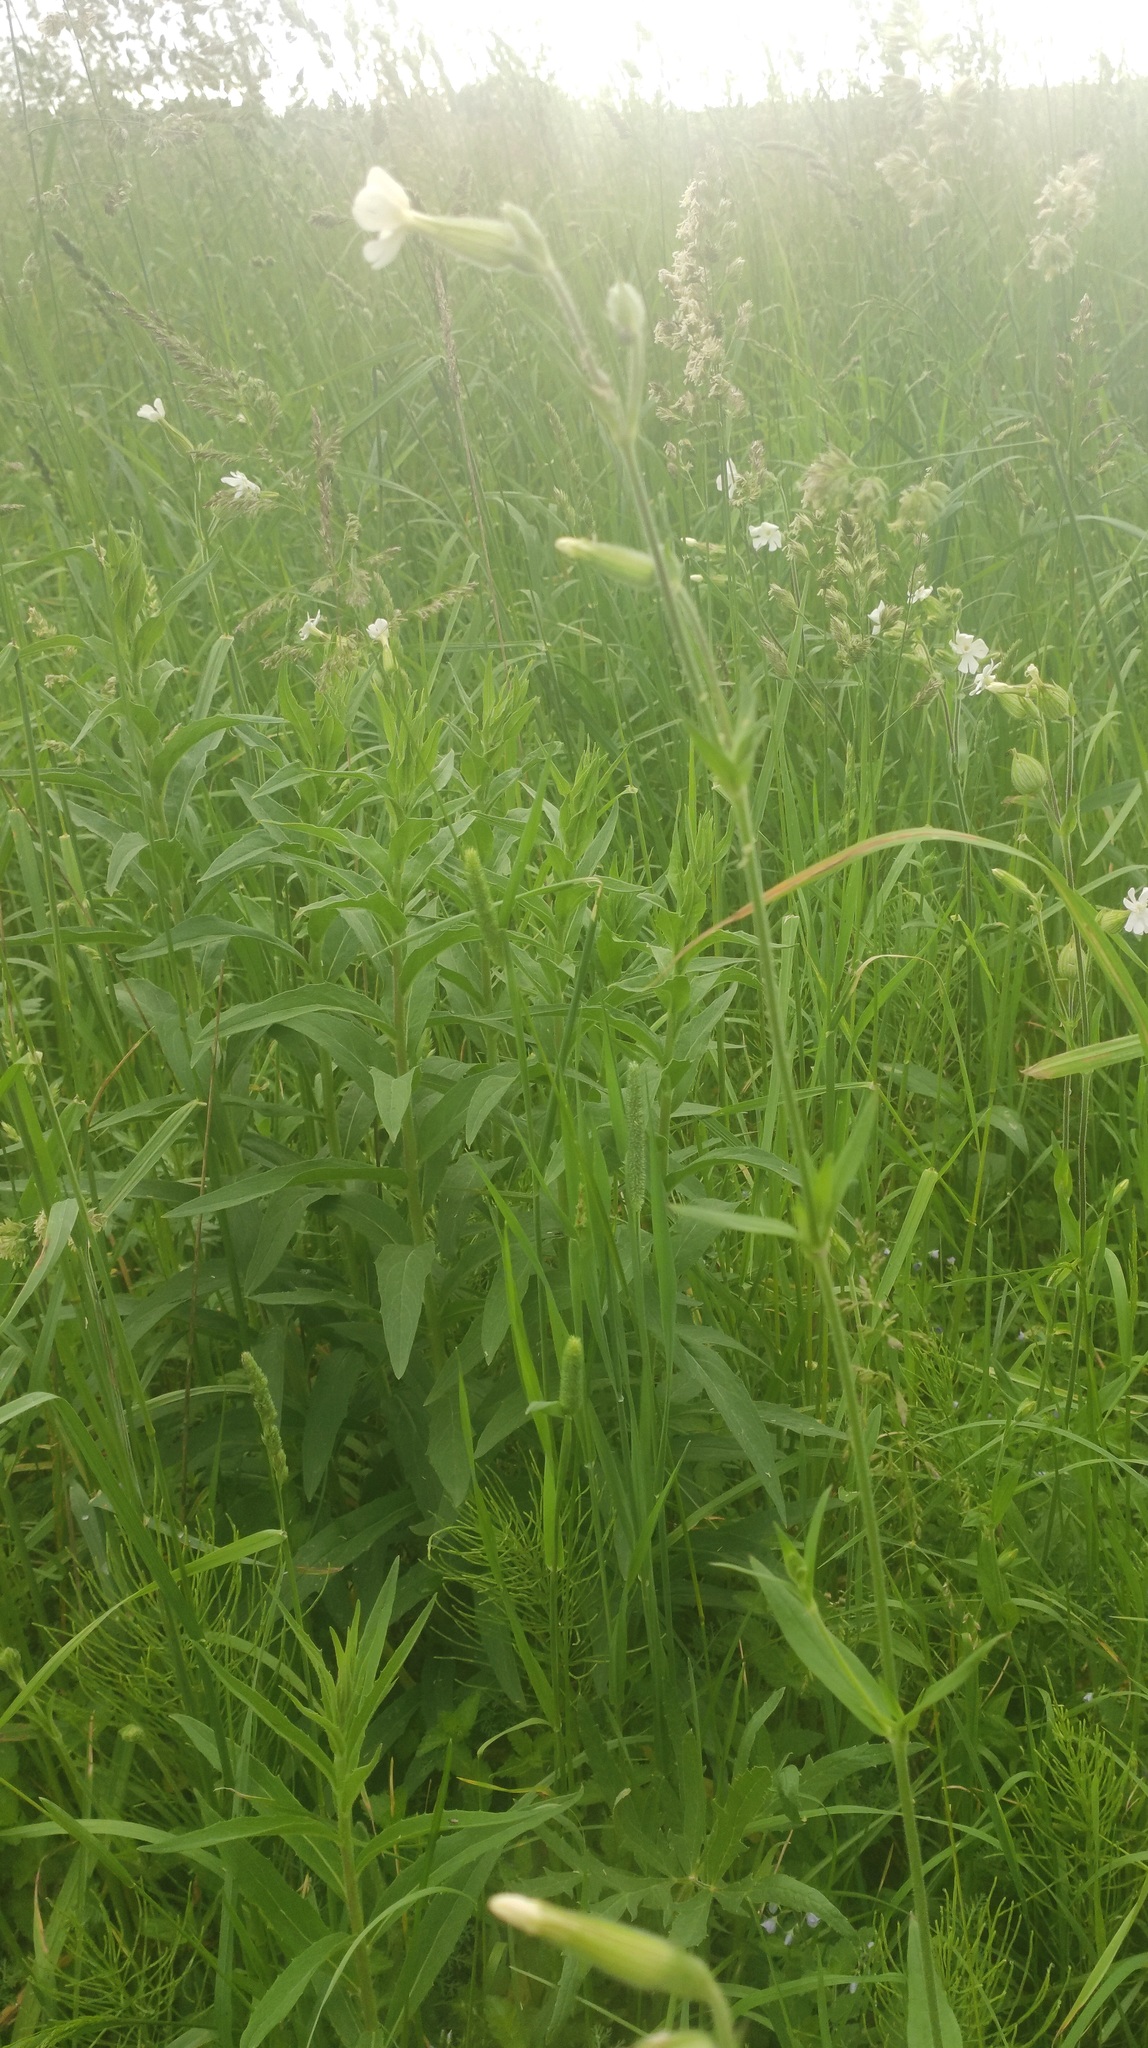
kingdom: Plantae
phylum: Tracheophyta
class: Magnoliopsida
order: Caryophyllales
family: Caryophyllaceae
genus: Silene
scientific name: Silene latifolia
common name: White campion
